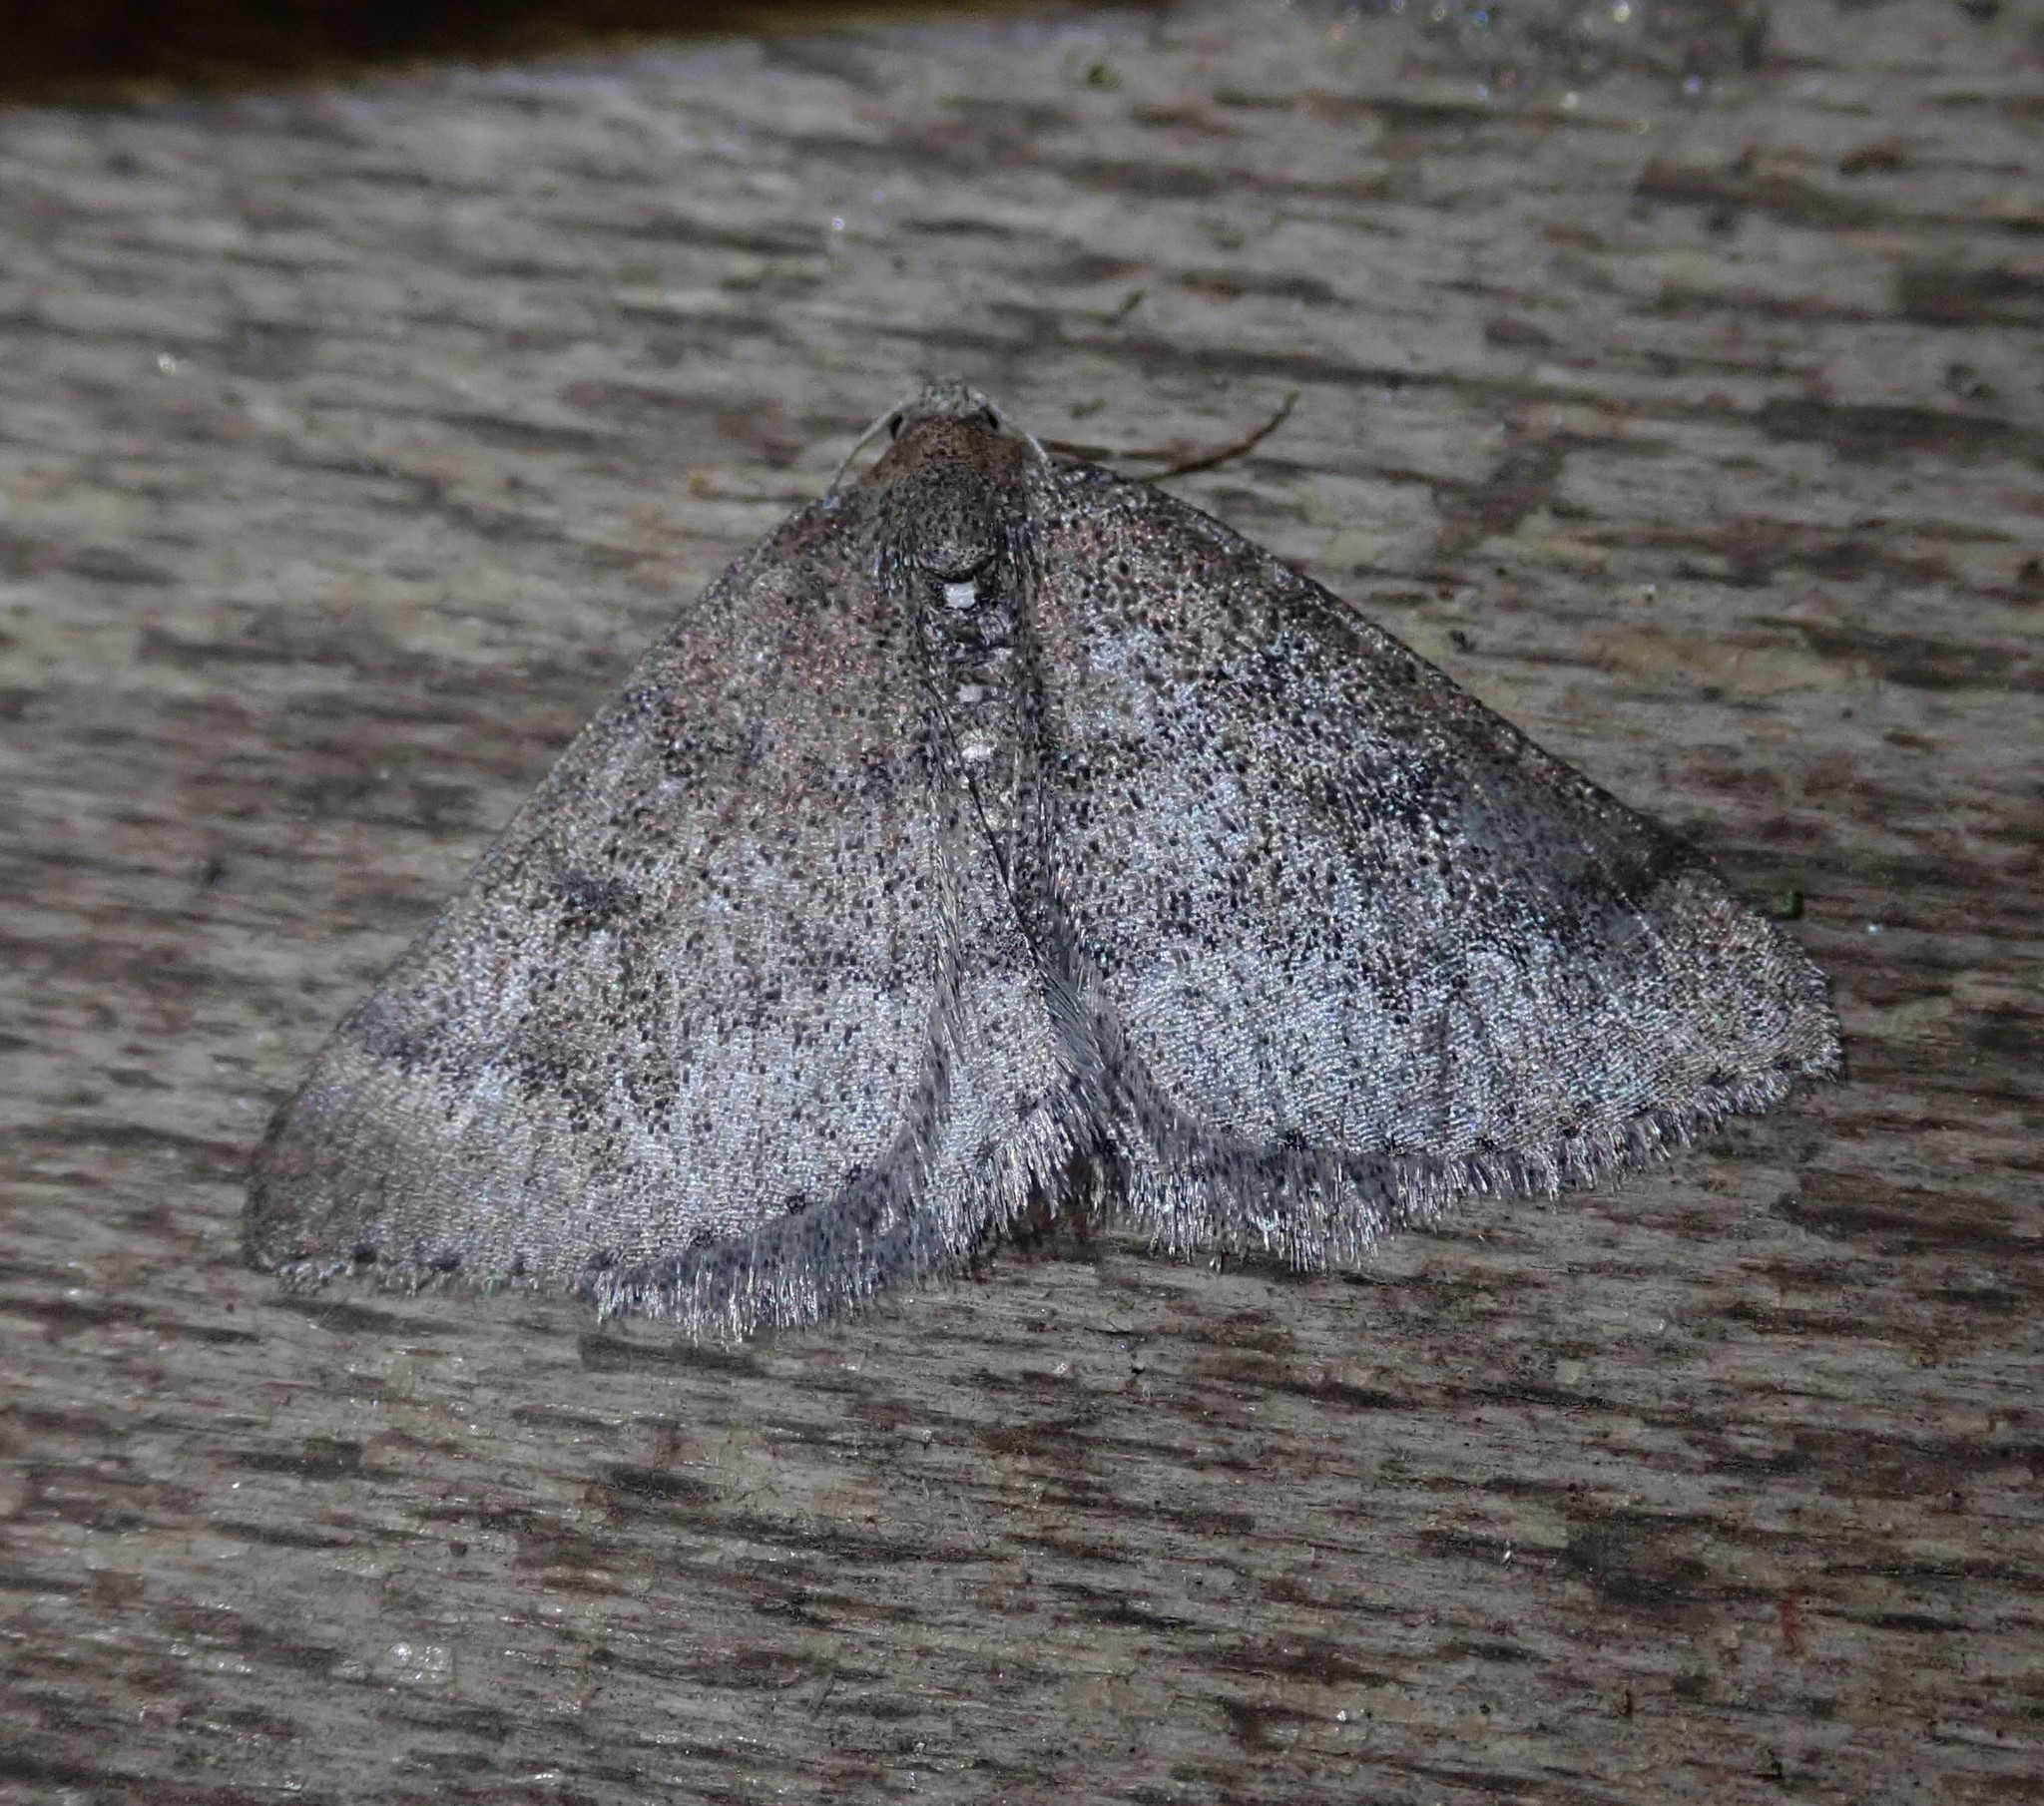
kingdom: Animalia
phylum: Arthropoda
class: Insecta
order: Lepidoptera
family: Geometridae
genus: Aleucis
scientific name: Aleucis distinctata
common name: Sloe carpet
